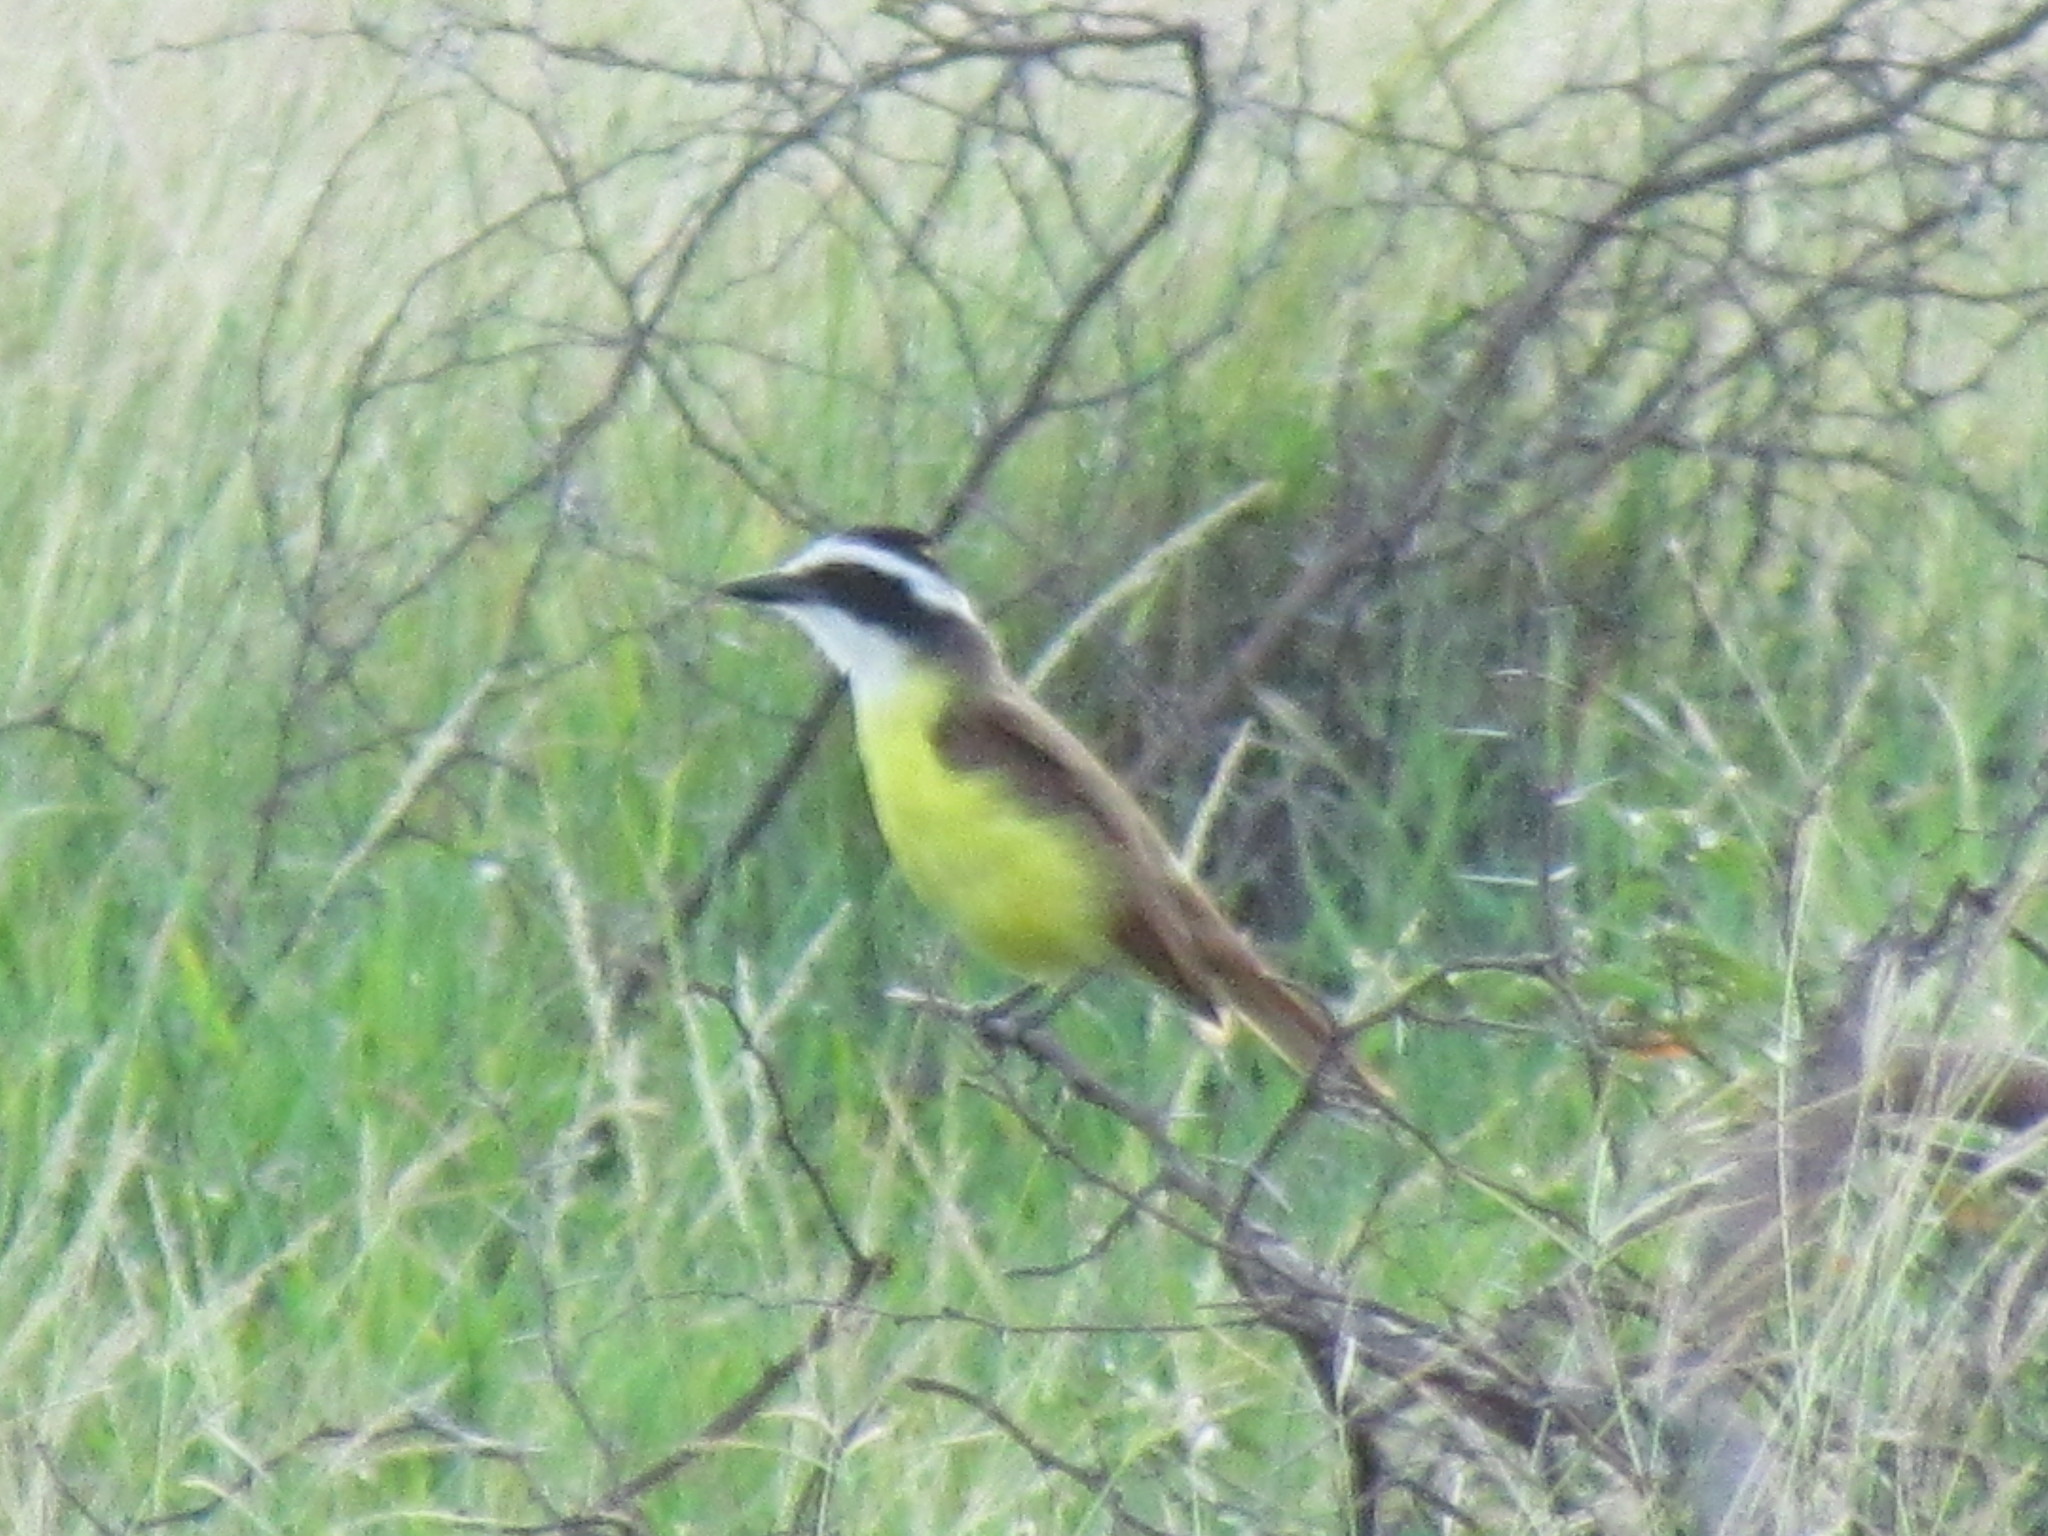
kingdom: Animalia
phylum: Chordata
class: Aves
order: Passeriformes
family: Tyrannidae
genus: Pitangus
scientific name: Pitangus sulphuratus
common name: Great kiskadee
